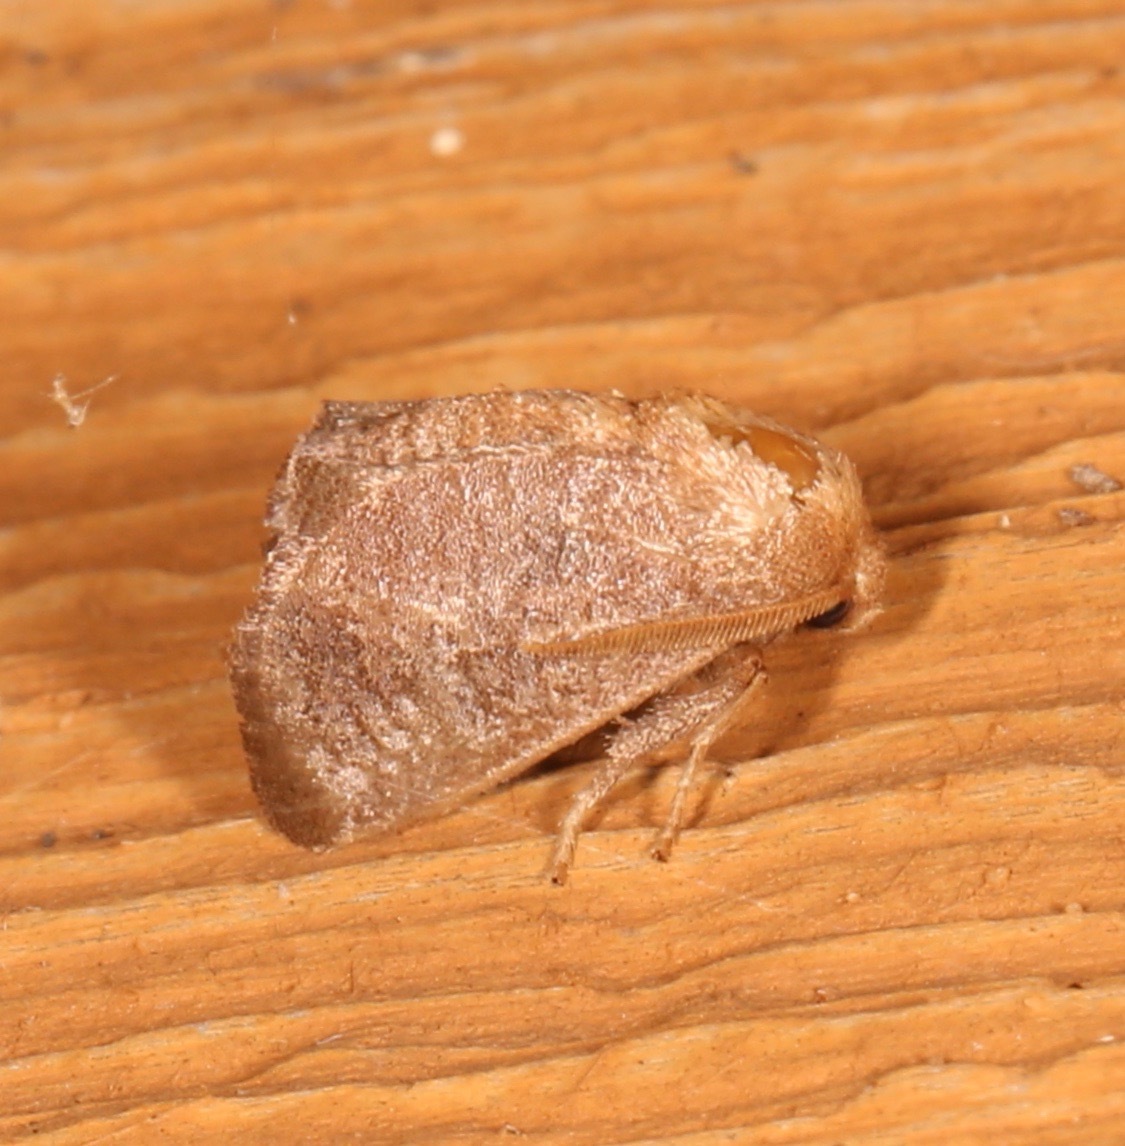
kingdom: Animalia
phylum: Arthropoda
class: Insecta
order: Lepidoptera
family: Limacodidae
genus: Isa
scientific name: Isa textula
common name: Crowned slug moth
